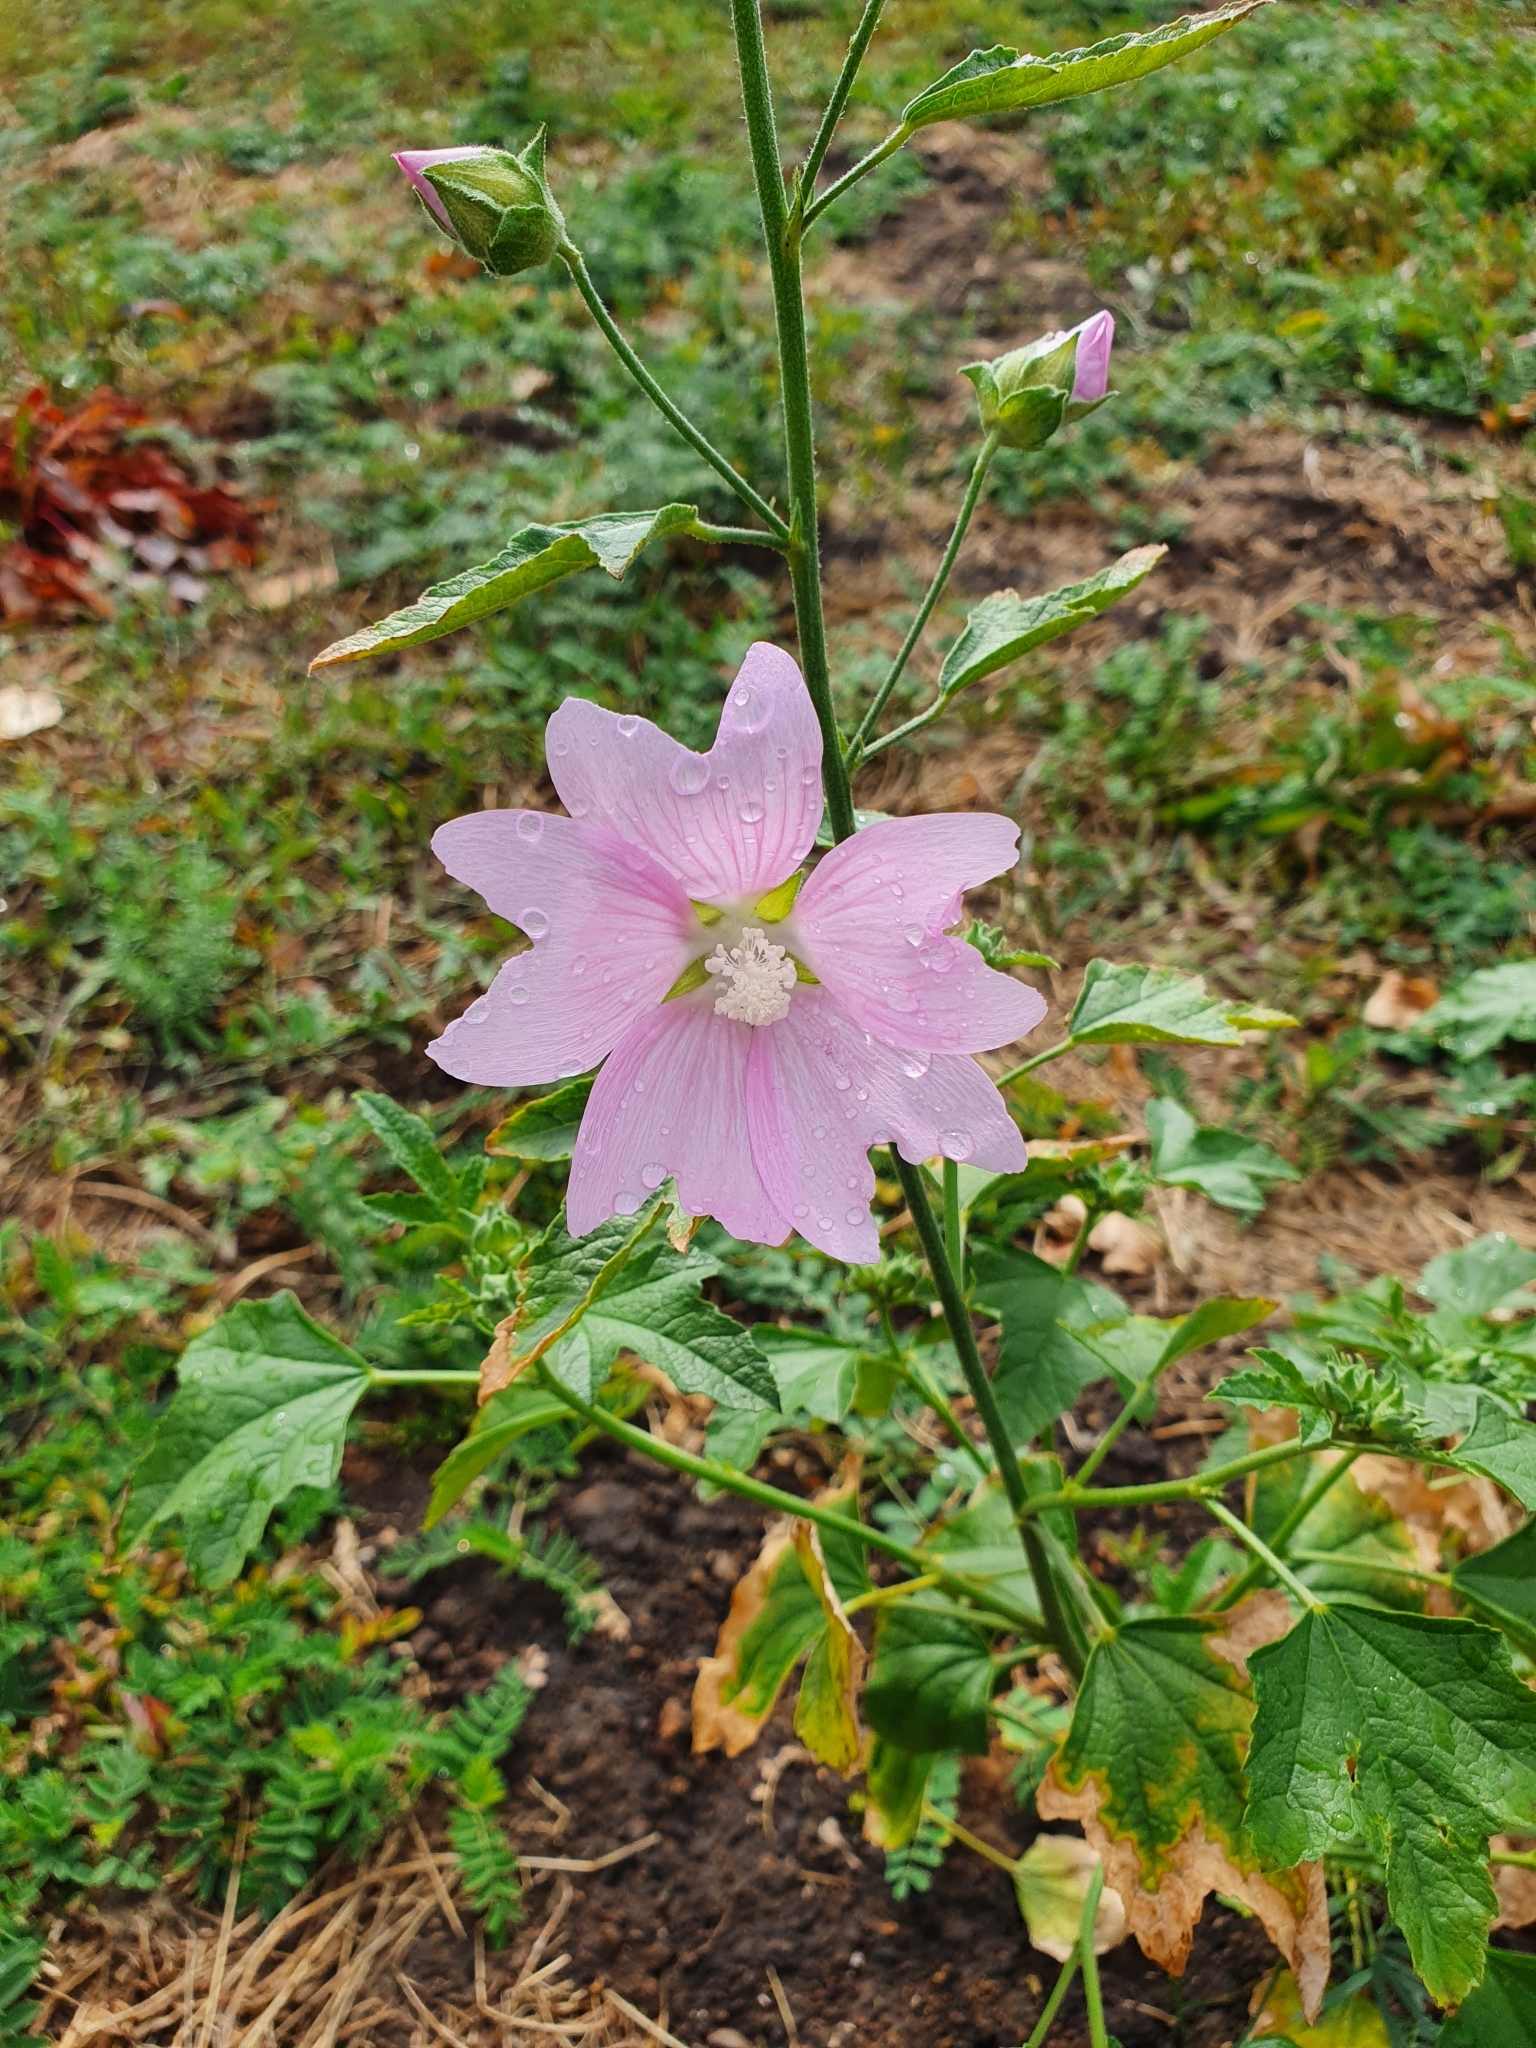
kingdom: Plantae
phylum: Tracheophyta
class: Magnoliopsida
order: Malvales
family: Malvaceae
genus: Malva
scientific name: Malva thuringiaca
